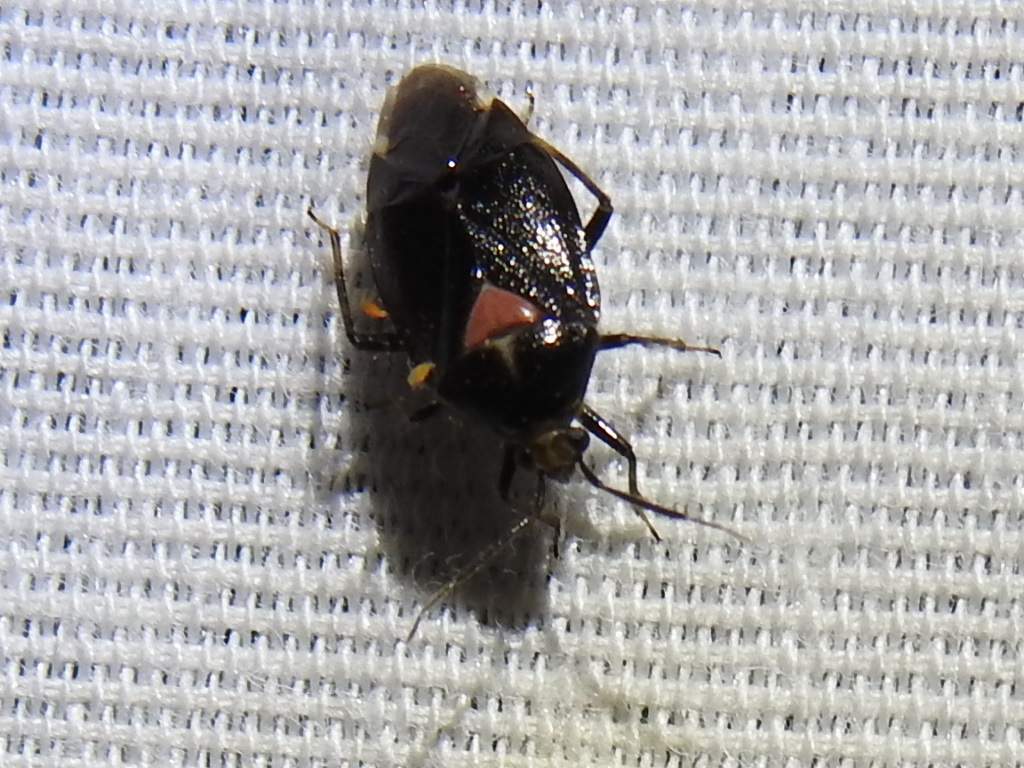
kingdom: Animalia
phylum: Arthropoda
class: Insecta
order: Hemiptera
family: Miridae
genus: Deraeocoris
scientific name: Deraeocoris sayi
